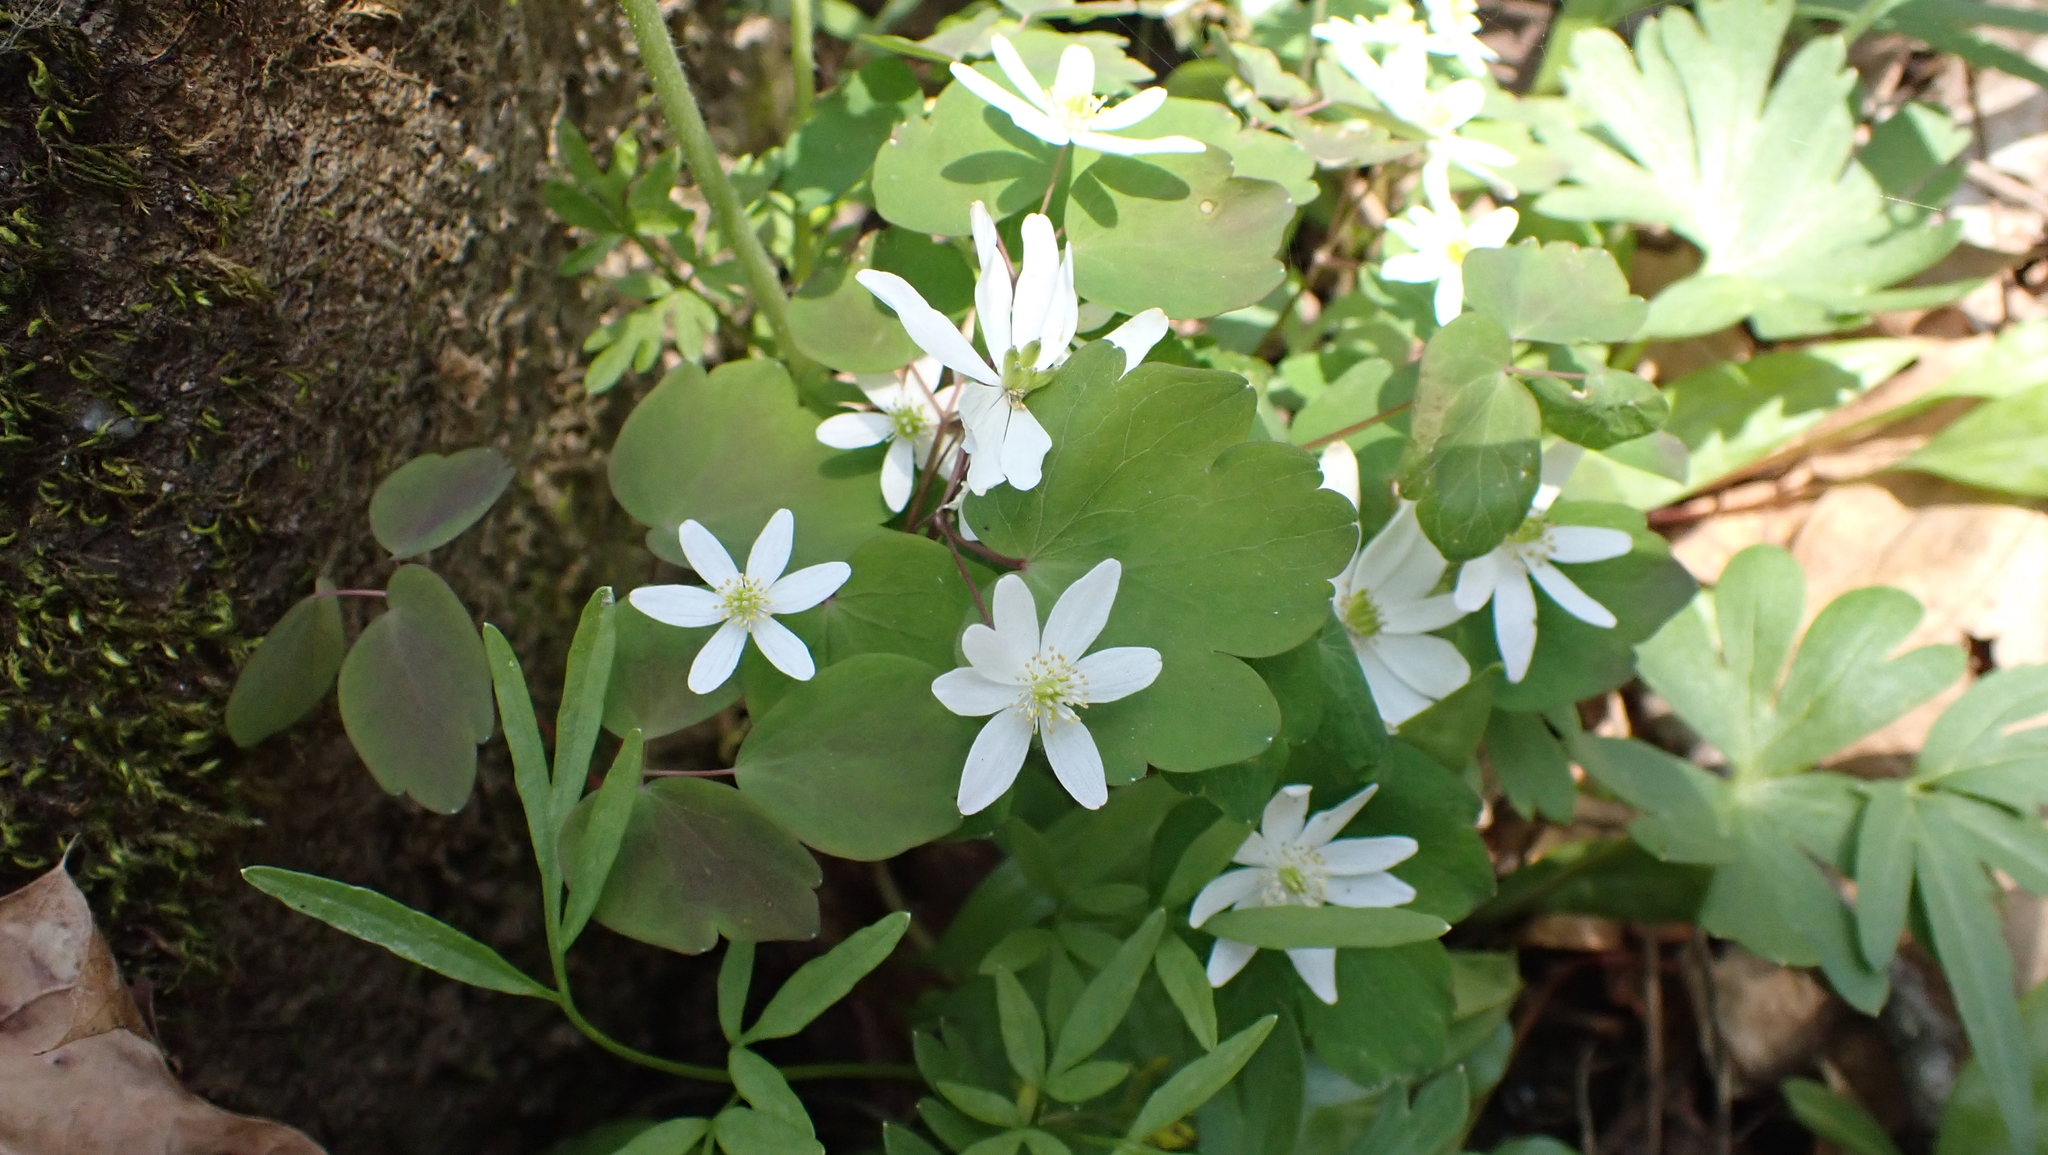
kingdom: Plantae
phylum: Tracheophyta
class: Magnoliopsida
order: Ranunculales
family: Ranunculaceae
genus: Thalictrum
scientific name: Thalictrum thalictroides
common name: Rue-anemone
